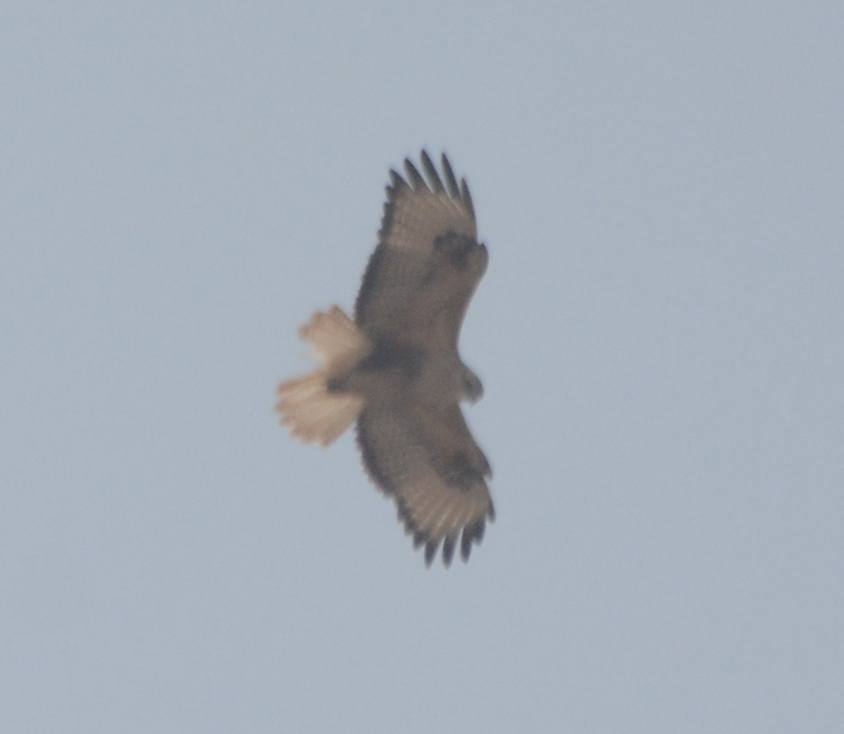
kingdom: Animalia
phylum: Chordata
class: Aves
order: Accipitriformes
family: Accipitridae
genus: Buteo
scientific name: Buteo rufinus
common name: Long-legged buzzard
